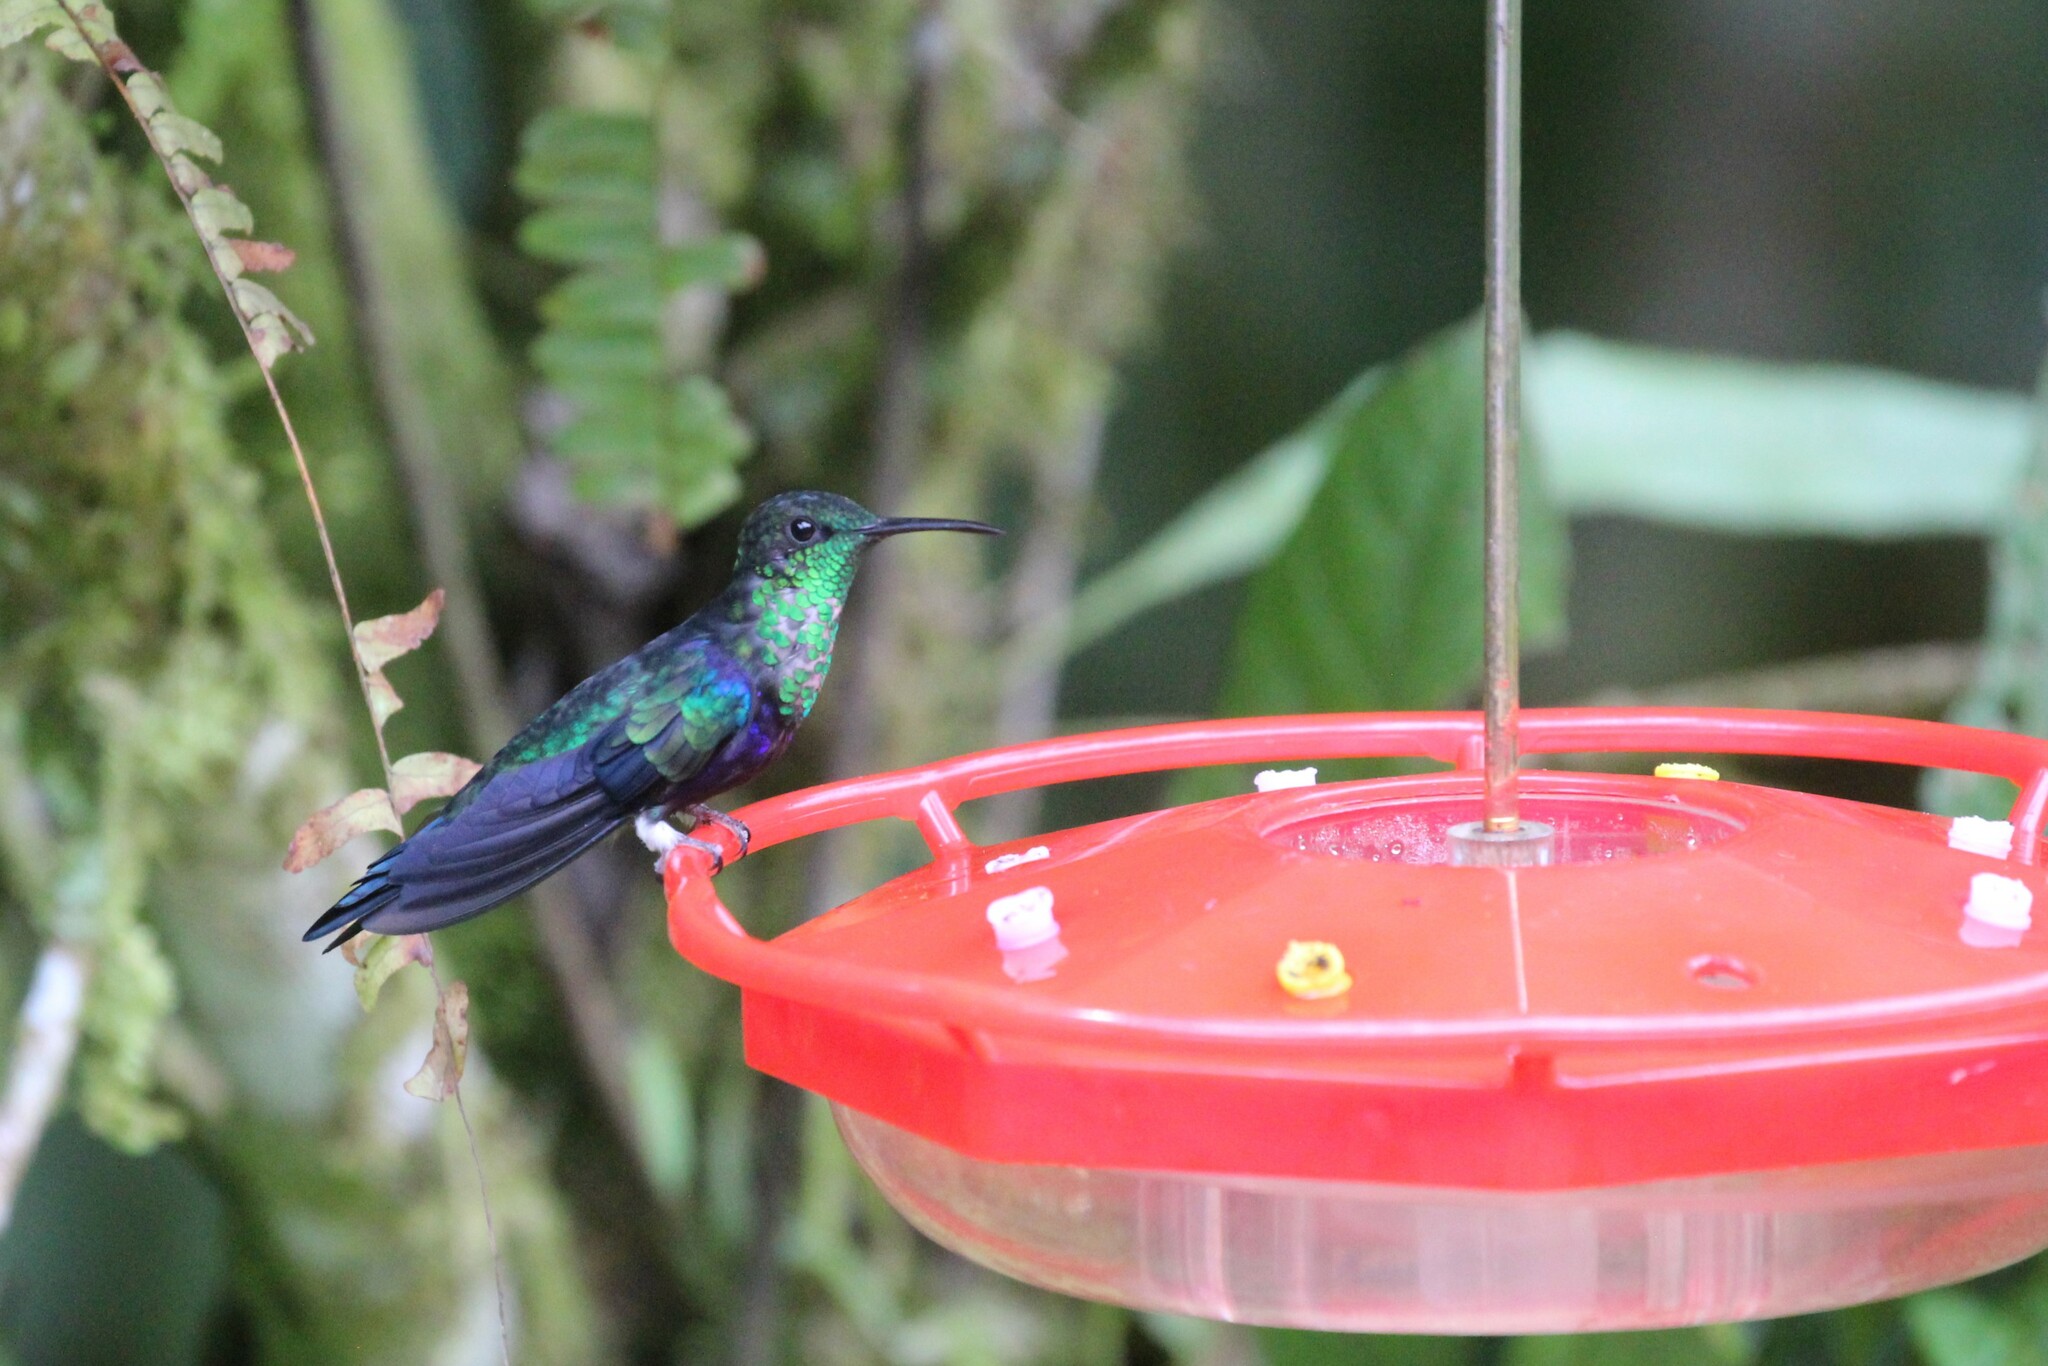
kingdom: Animalia
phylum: Chordata
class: Aves
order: Apodiformes
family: Trochilidae
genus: Thalurania
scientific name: Thalurania furcata
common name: Fork-tailed woodnymph
